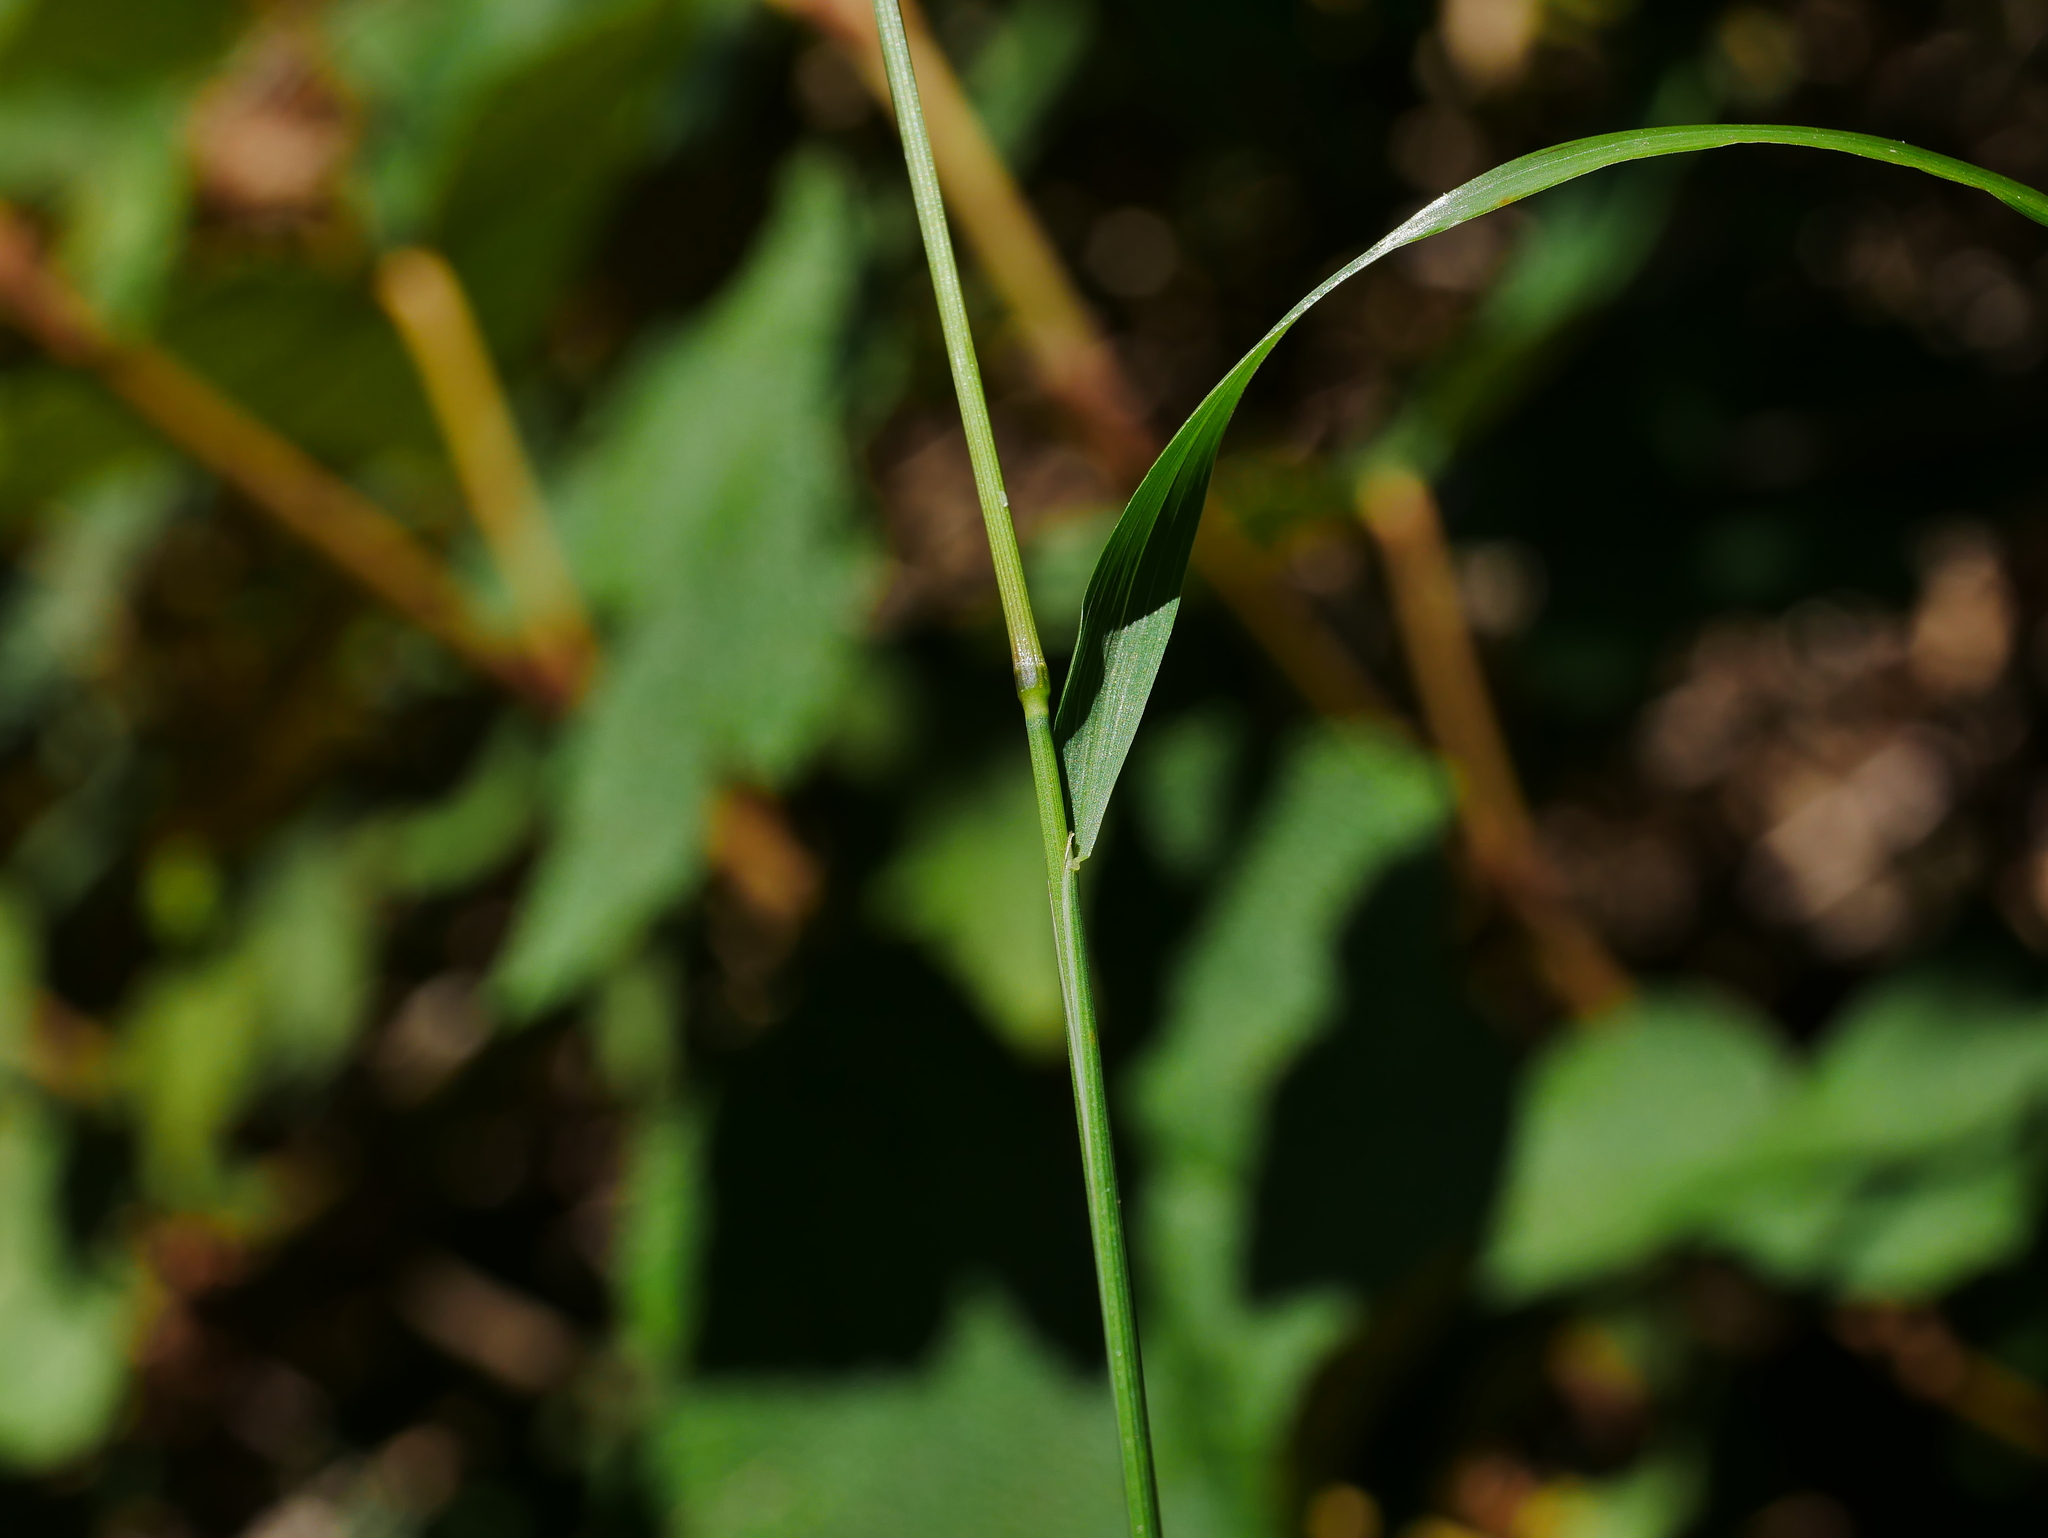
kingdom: Plantae
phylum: Tracheophyta
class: Liliopsida
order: Poales
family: Poaceae
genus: Aniselytron
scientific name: Aniselytron agrostoides
